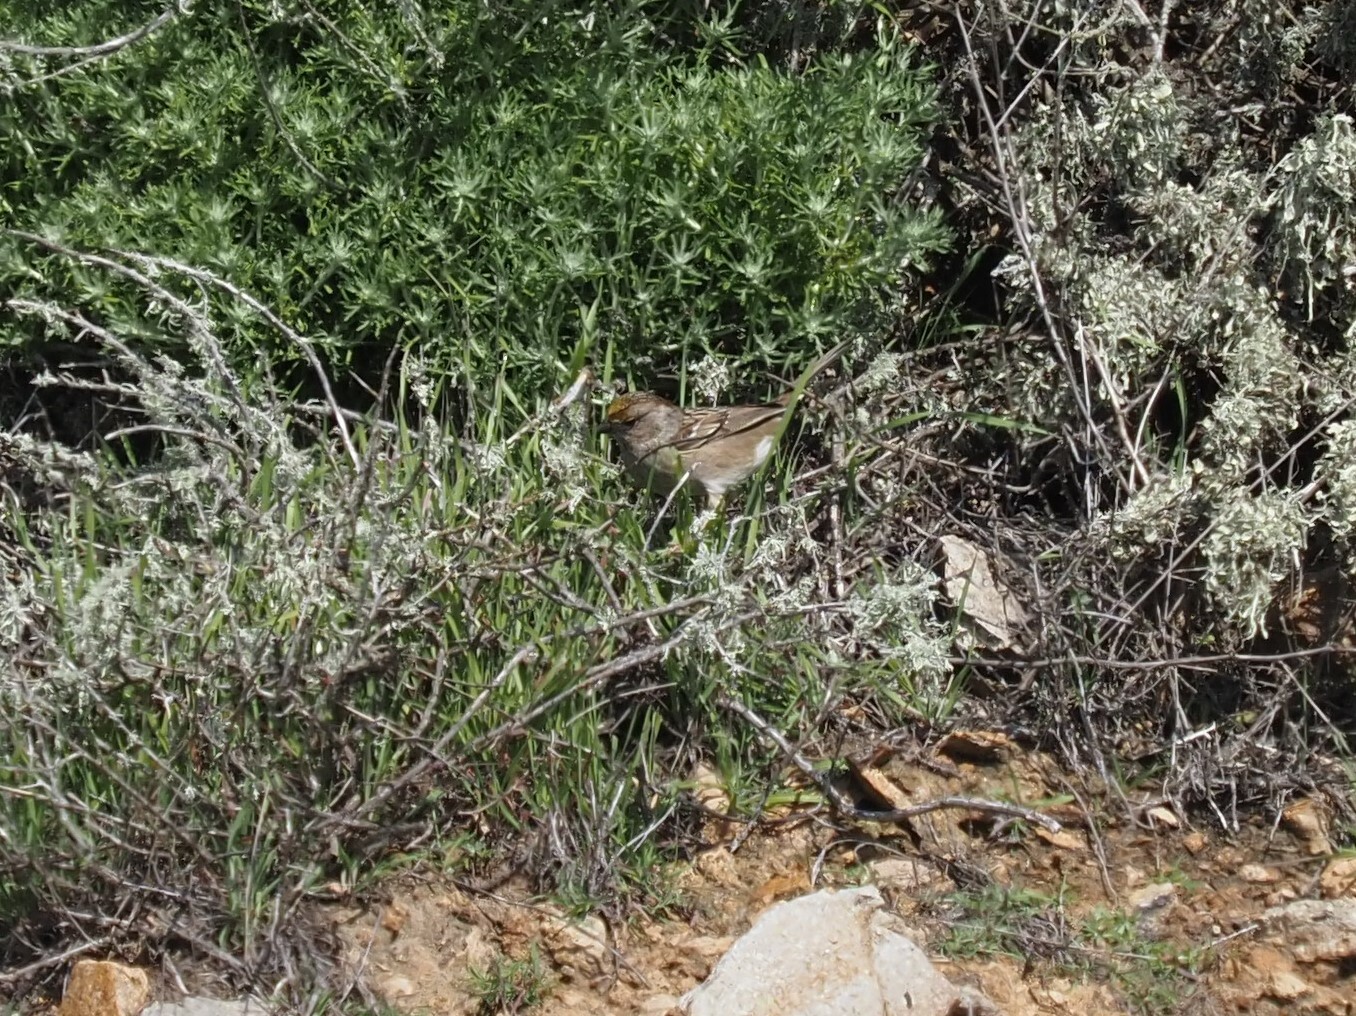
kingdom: Animalia
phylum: Chordata
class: Aves
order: Passeriformes
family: Passerellidae
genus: Zonotrichia
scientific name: Zonotrichia atricapilla
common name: Golden-crowned sparrow
